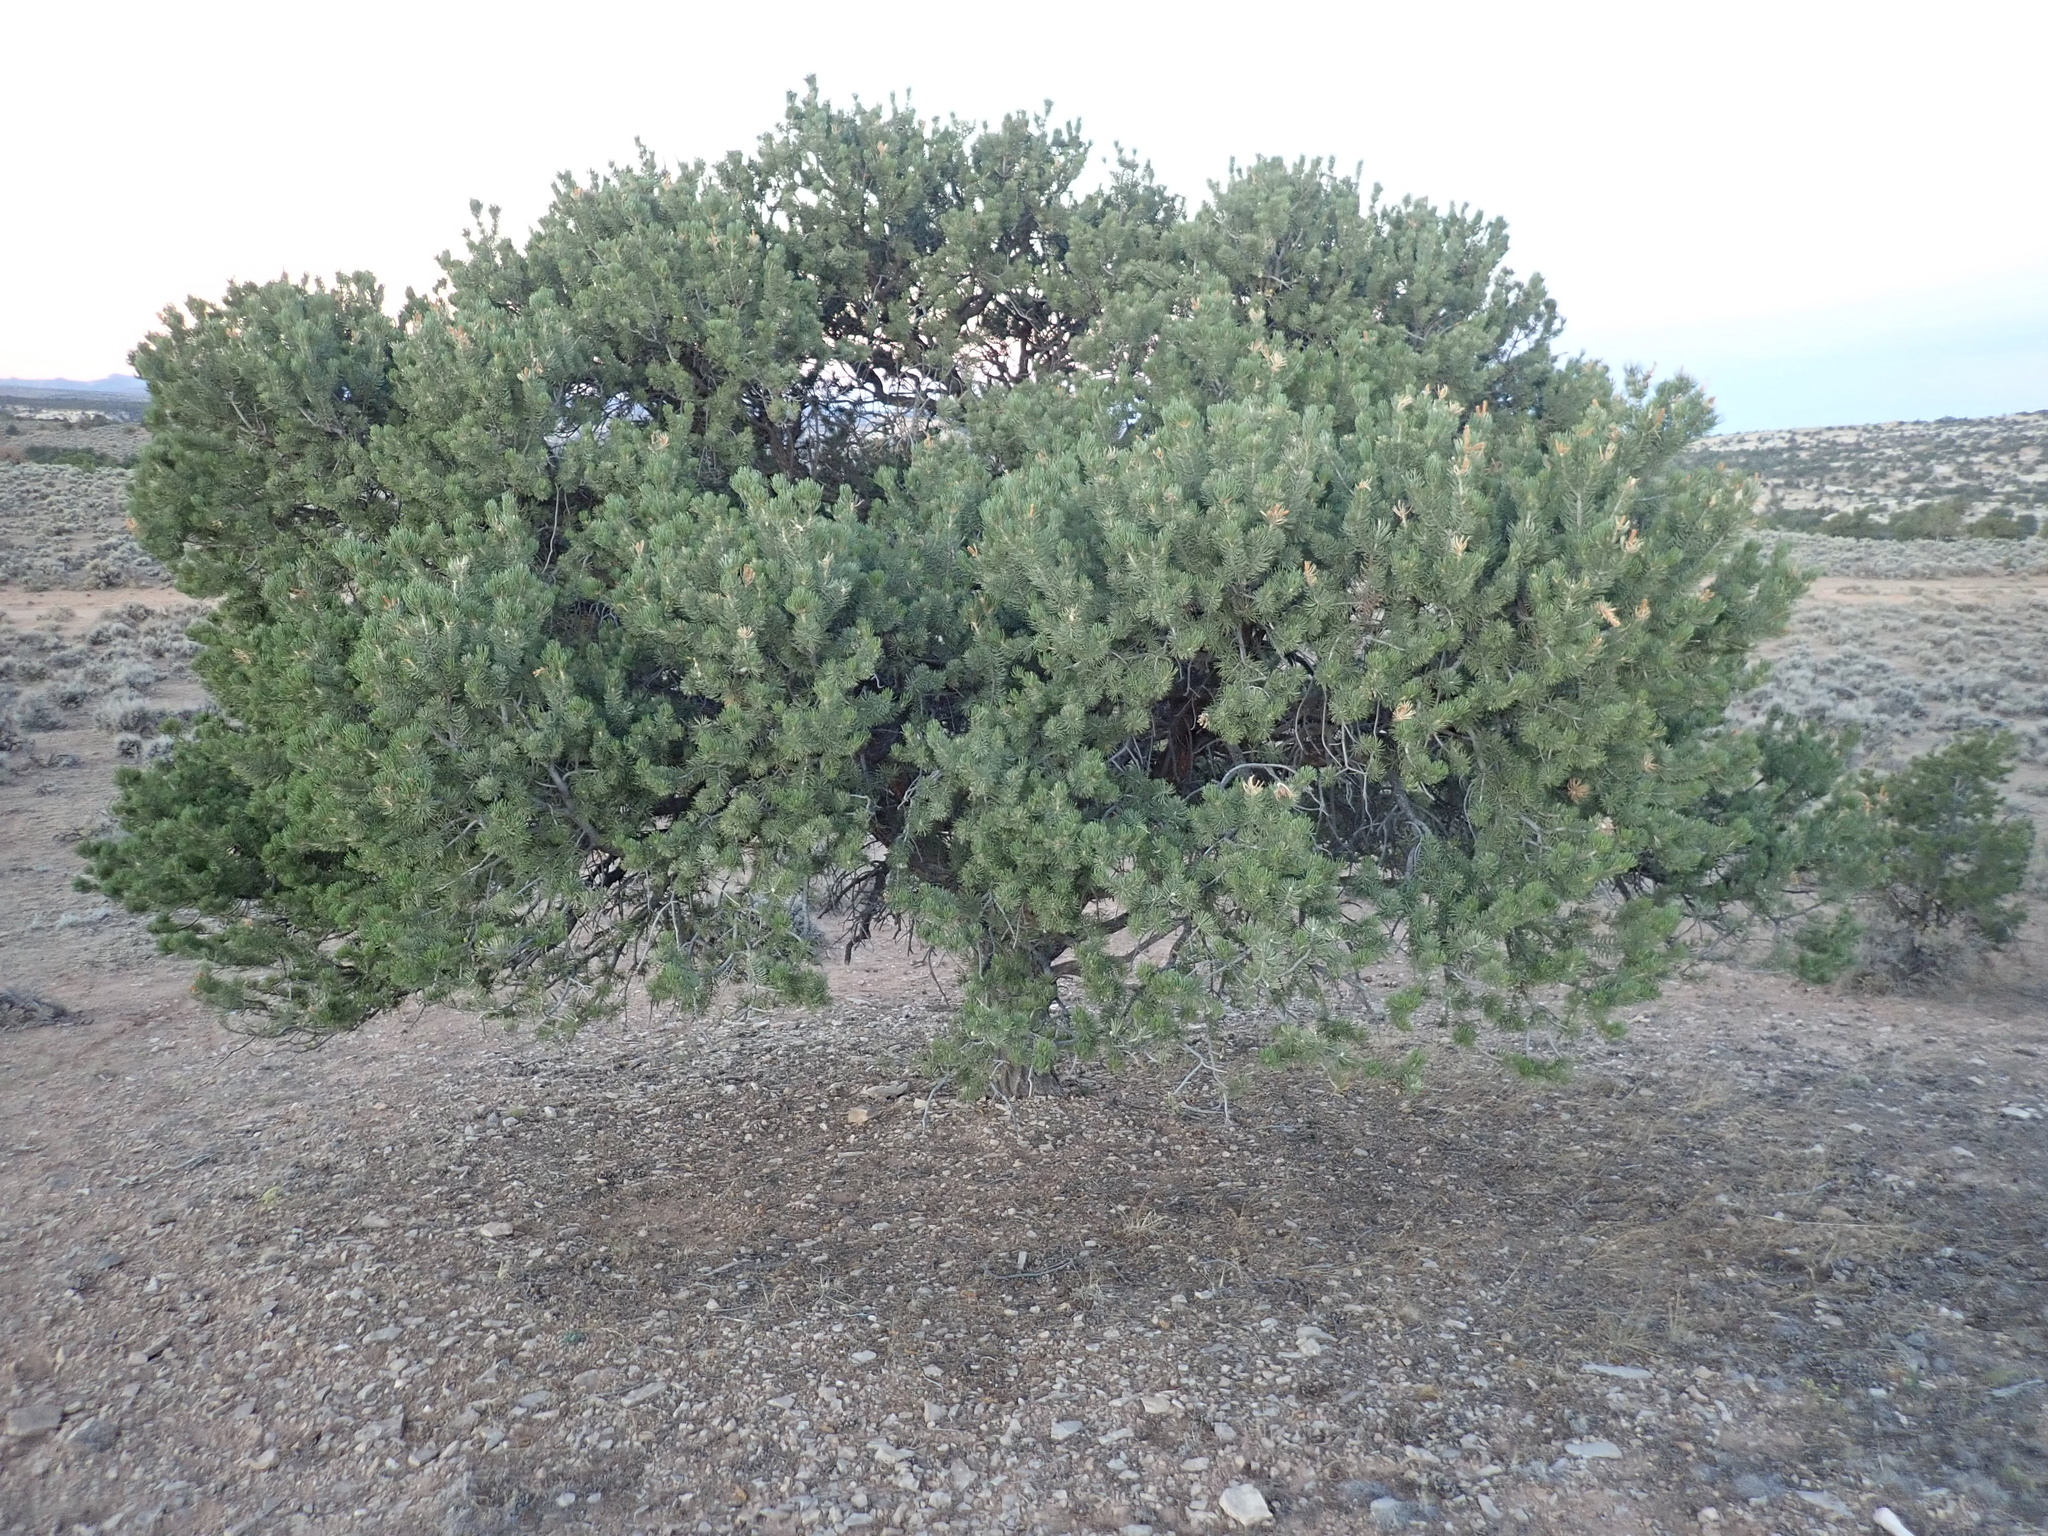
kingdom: Plantae
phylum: Tracheophyta
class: Pinopsida
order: Pinales
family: Pinaceae
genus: Pinus
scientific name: Pinus edulis
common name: Colorado pinyon
